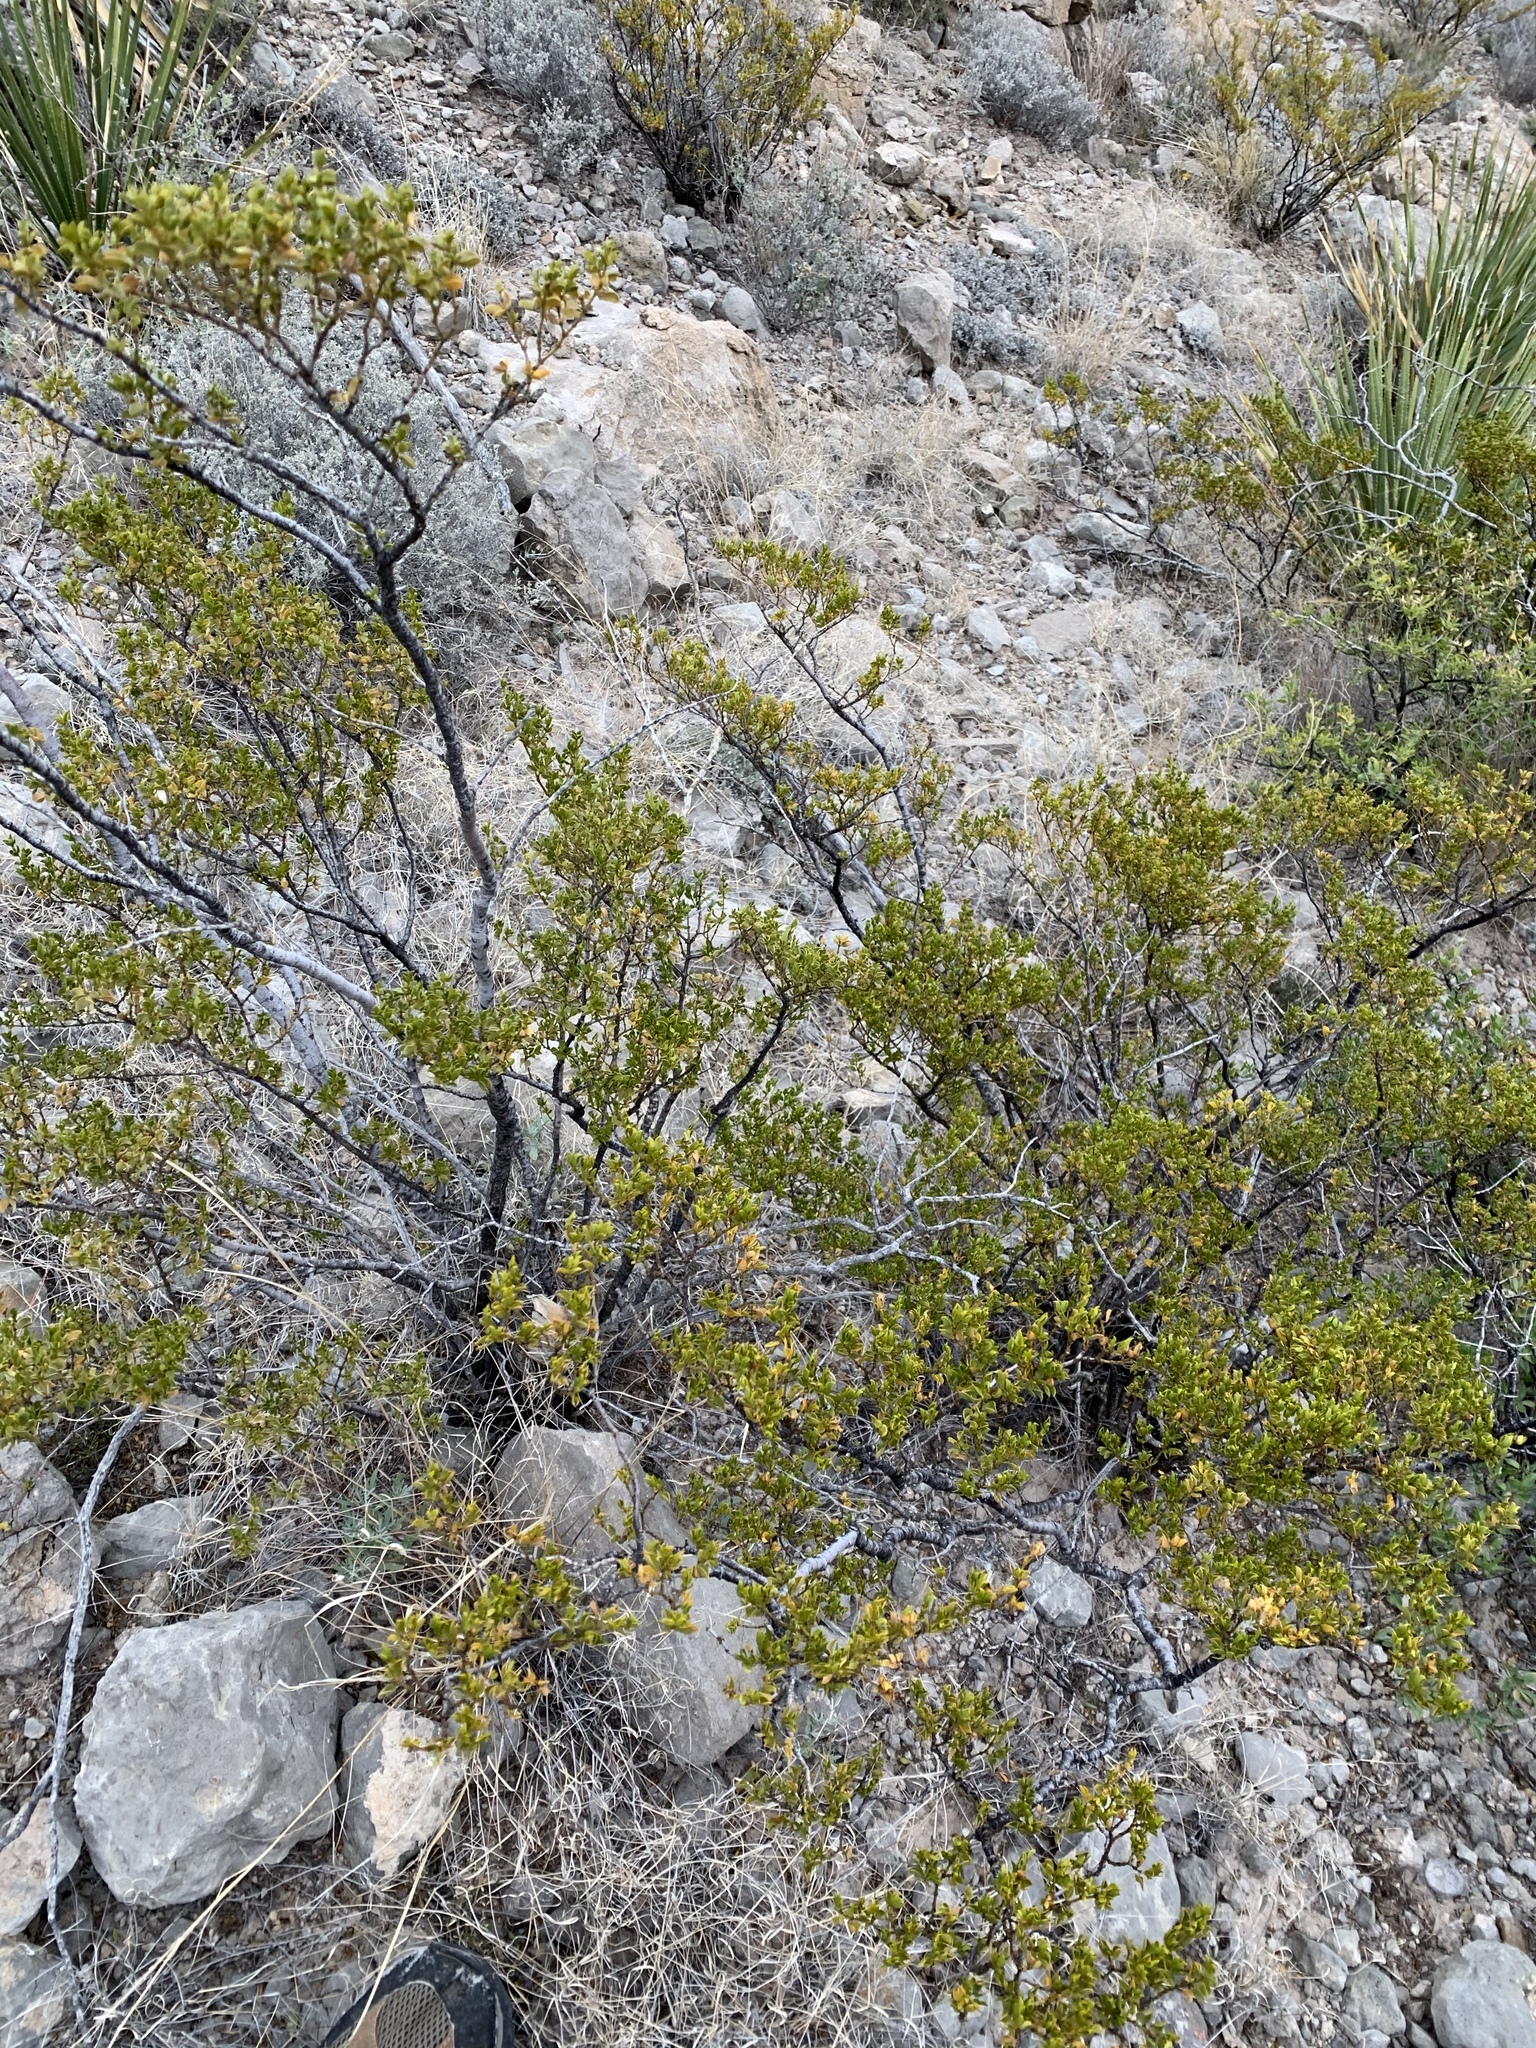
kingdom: Plantae
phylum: Tracheophyta
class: Magnoliopsida
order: Zygophyllales
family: Zygophyllaceae
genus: Larrea
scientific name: Larrea tridentata
